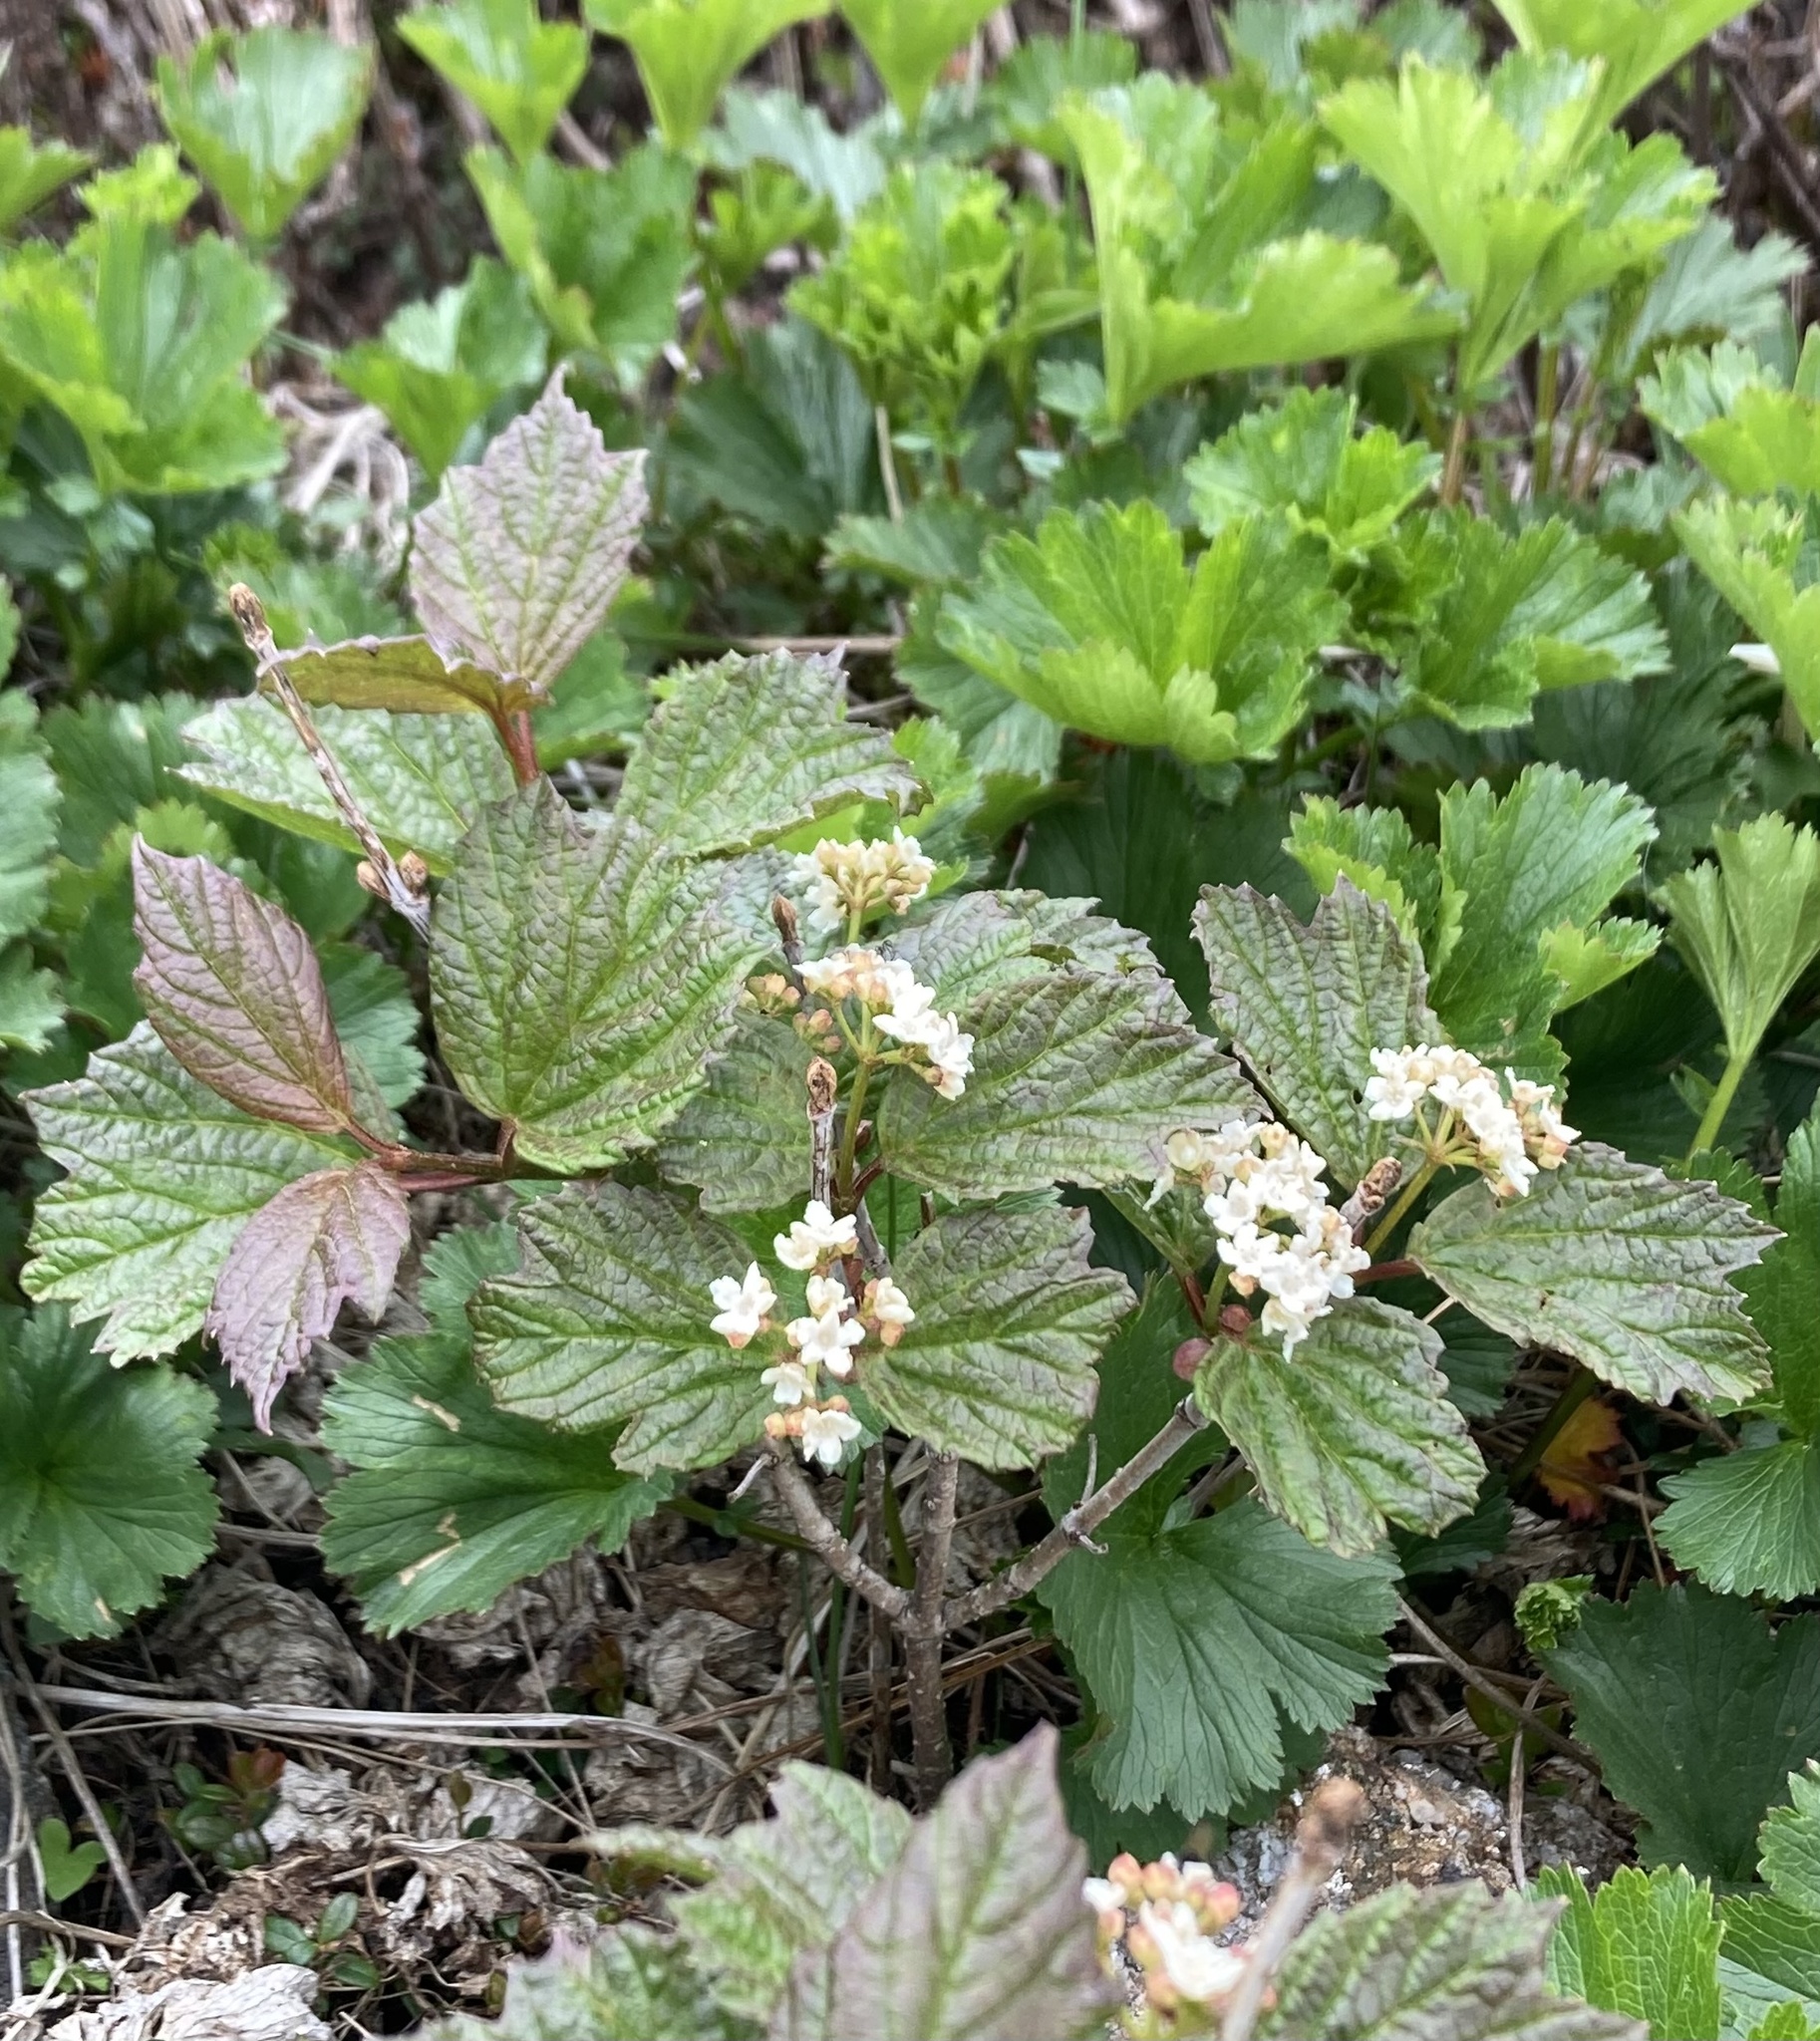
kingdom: Plantae
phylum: Tracheophyta
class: Magnoliopsida
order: Dipsacales
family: Viburnaceae
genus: Viburnum
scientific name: Viburnum edule
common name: Mooseberry
